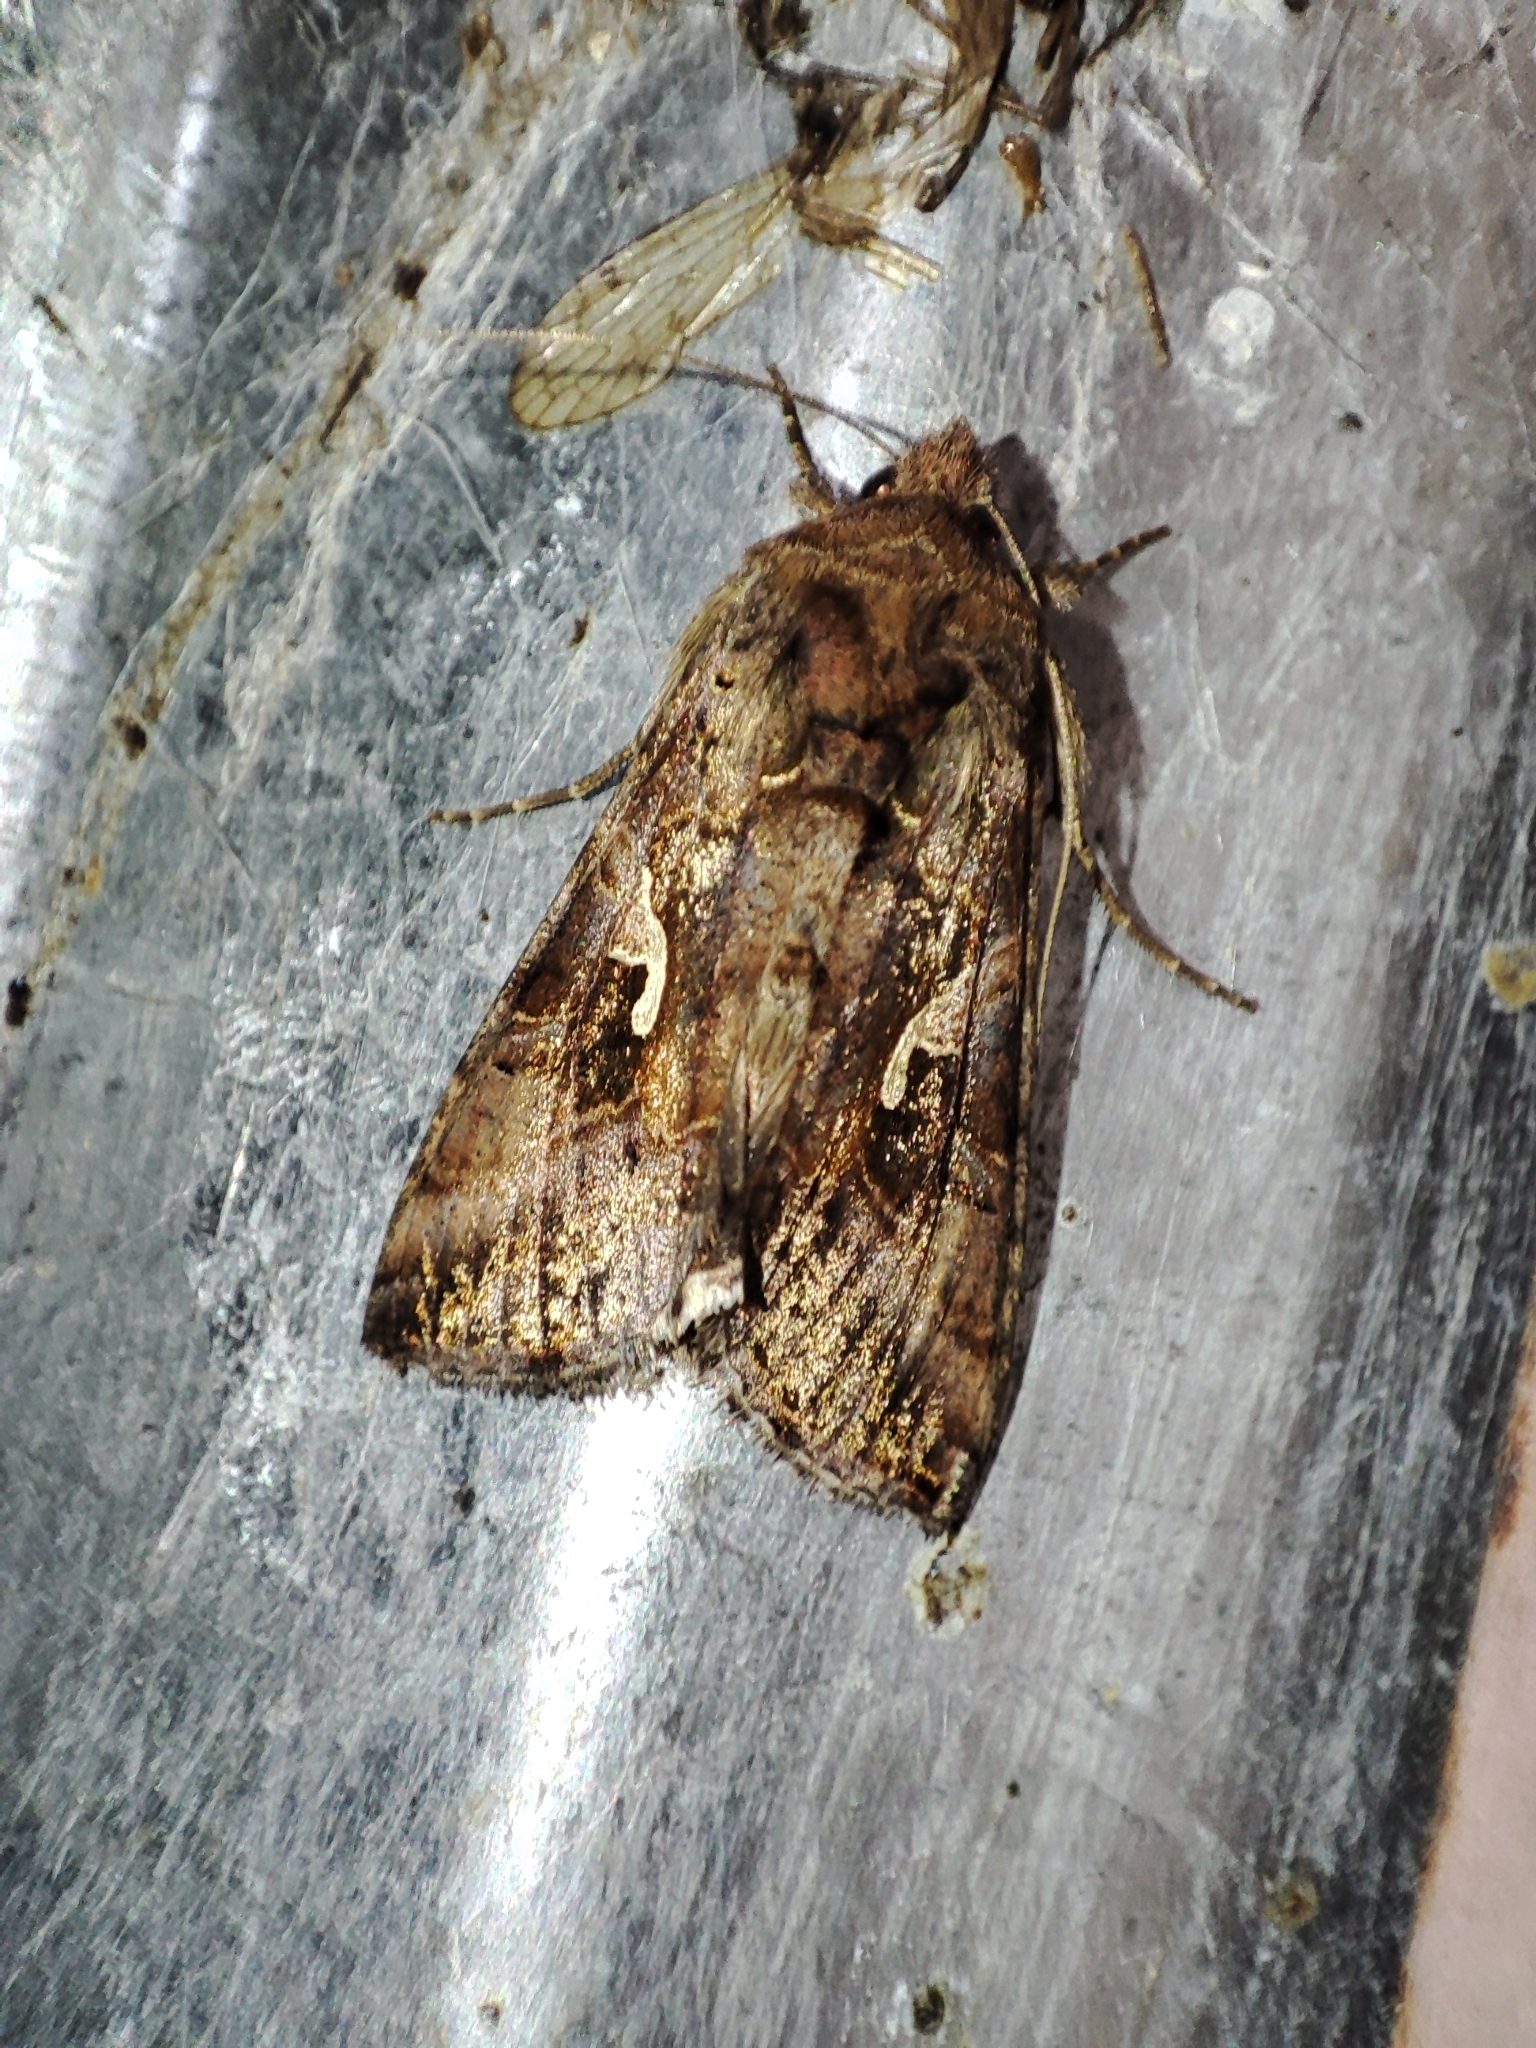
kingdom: Animalia
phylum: Arthropoda
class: Insecta
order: Lepidoptera
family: Noctuidae
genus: Autographa
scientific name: Autographa gamma
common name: Silver y
